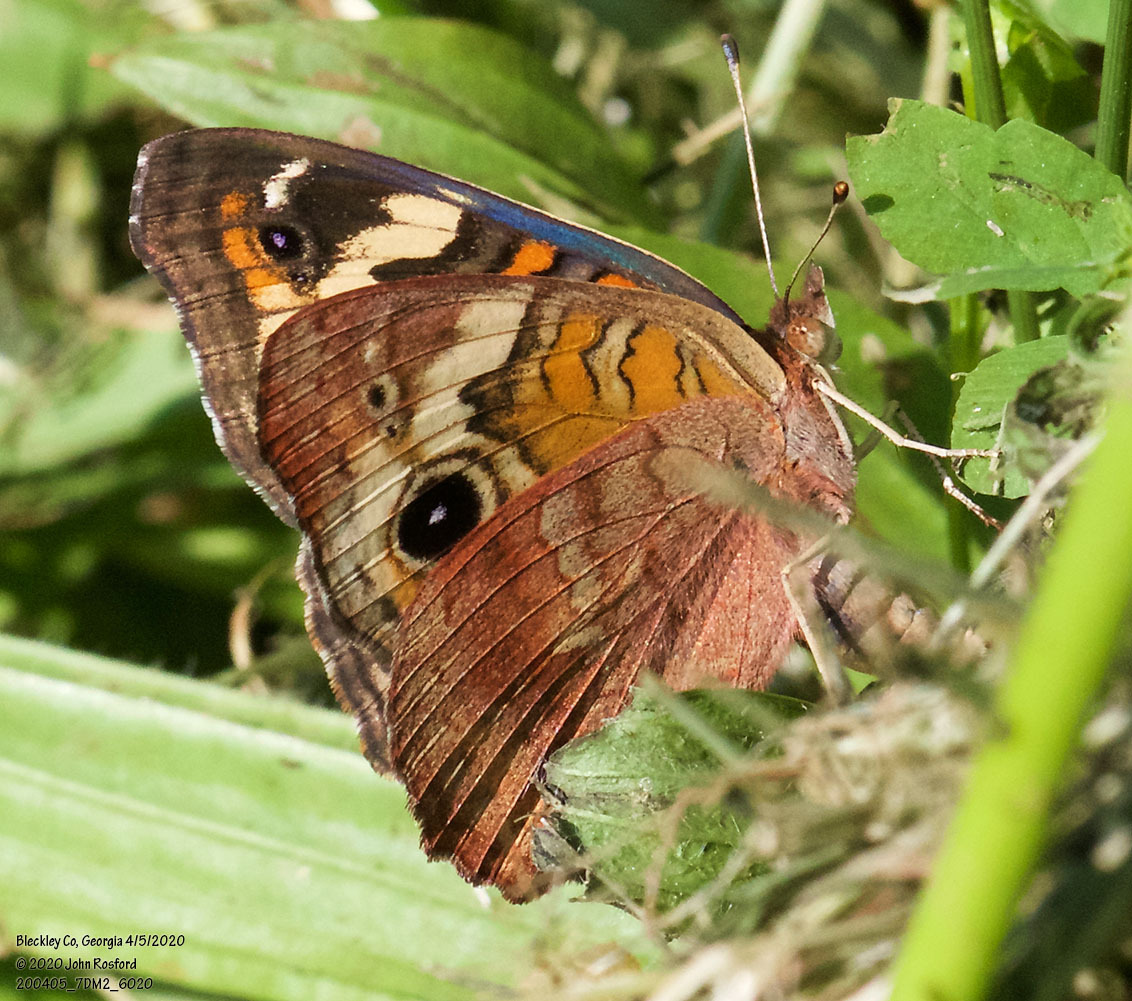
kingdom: Animalia
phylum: Arthropoda
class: Insecta
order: Lepidoptera
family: Nymphalidae
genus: Junonia
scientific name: Junonia coenia
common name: Common buckeye
